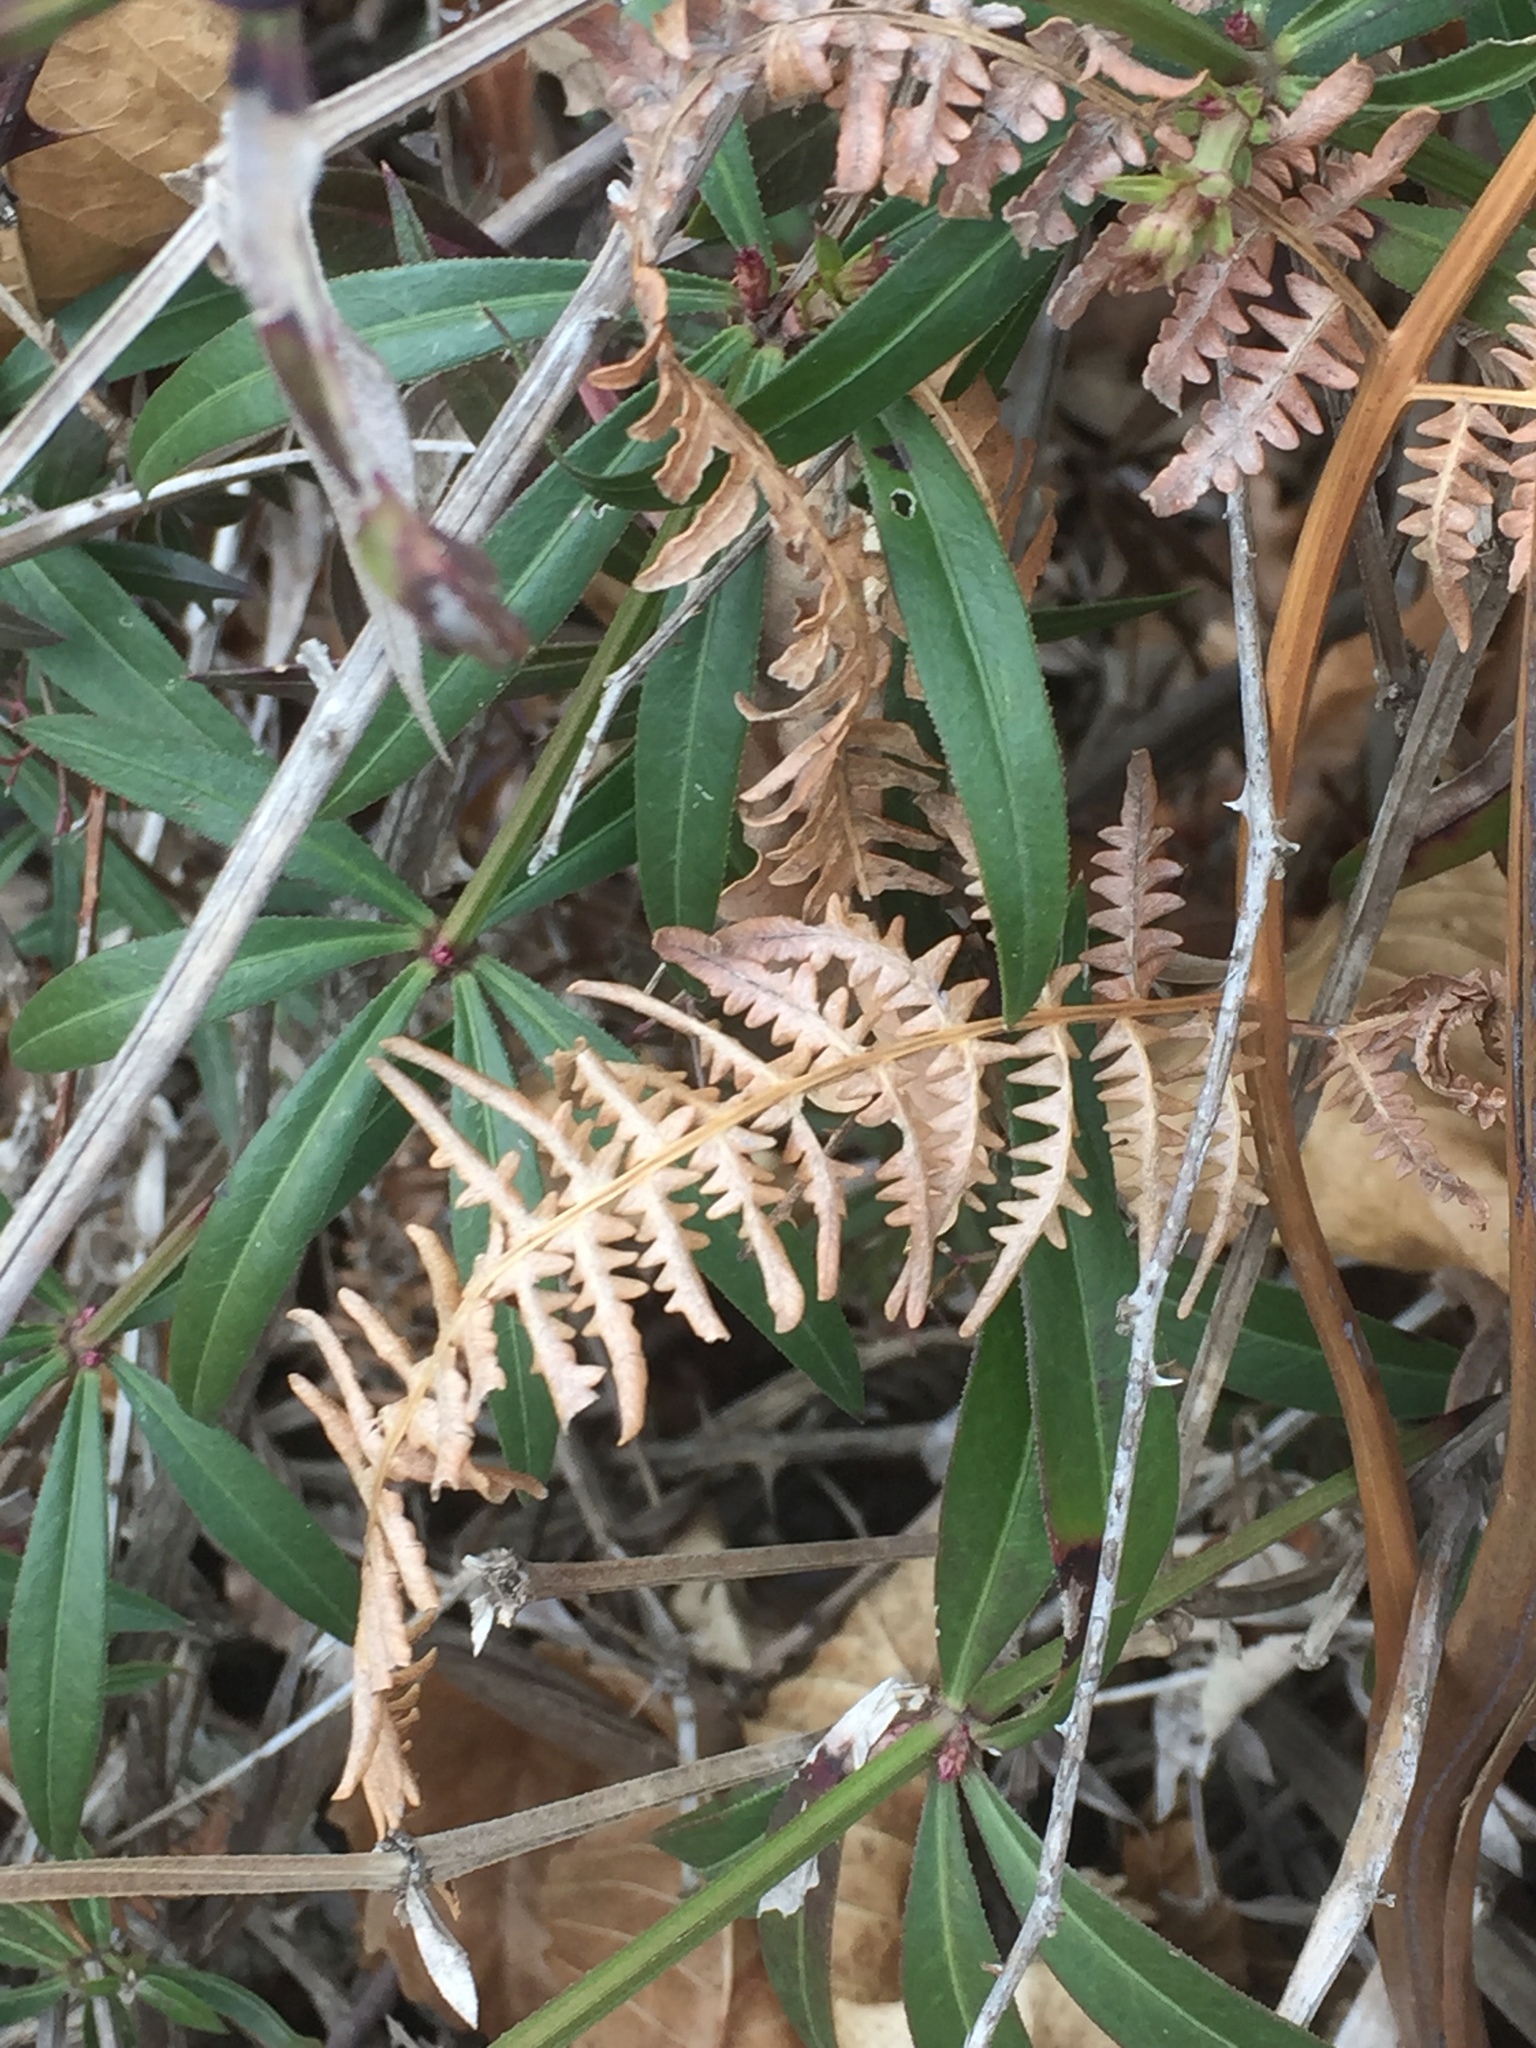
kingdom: Plantae
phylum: Tracheophyta
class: Polypodiopsida
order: Polypodiales
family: Dennstaedtiaceae
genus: Pteridium
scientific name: Pteridium aquilinum
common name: Bracken
